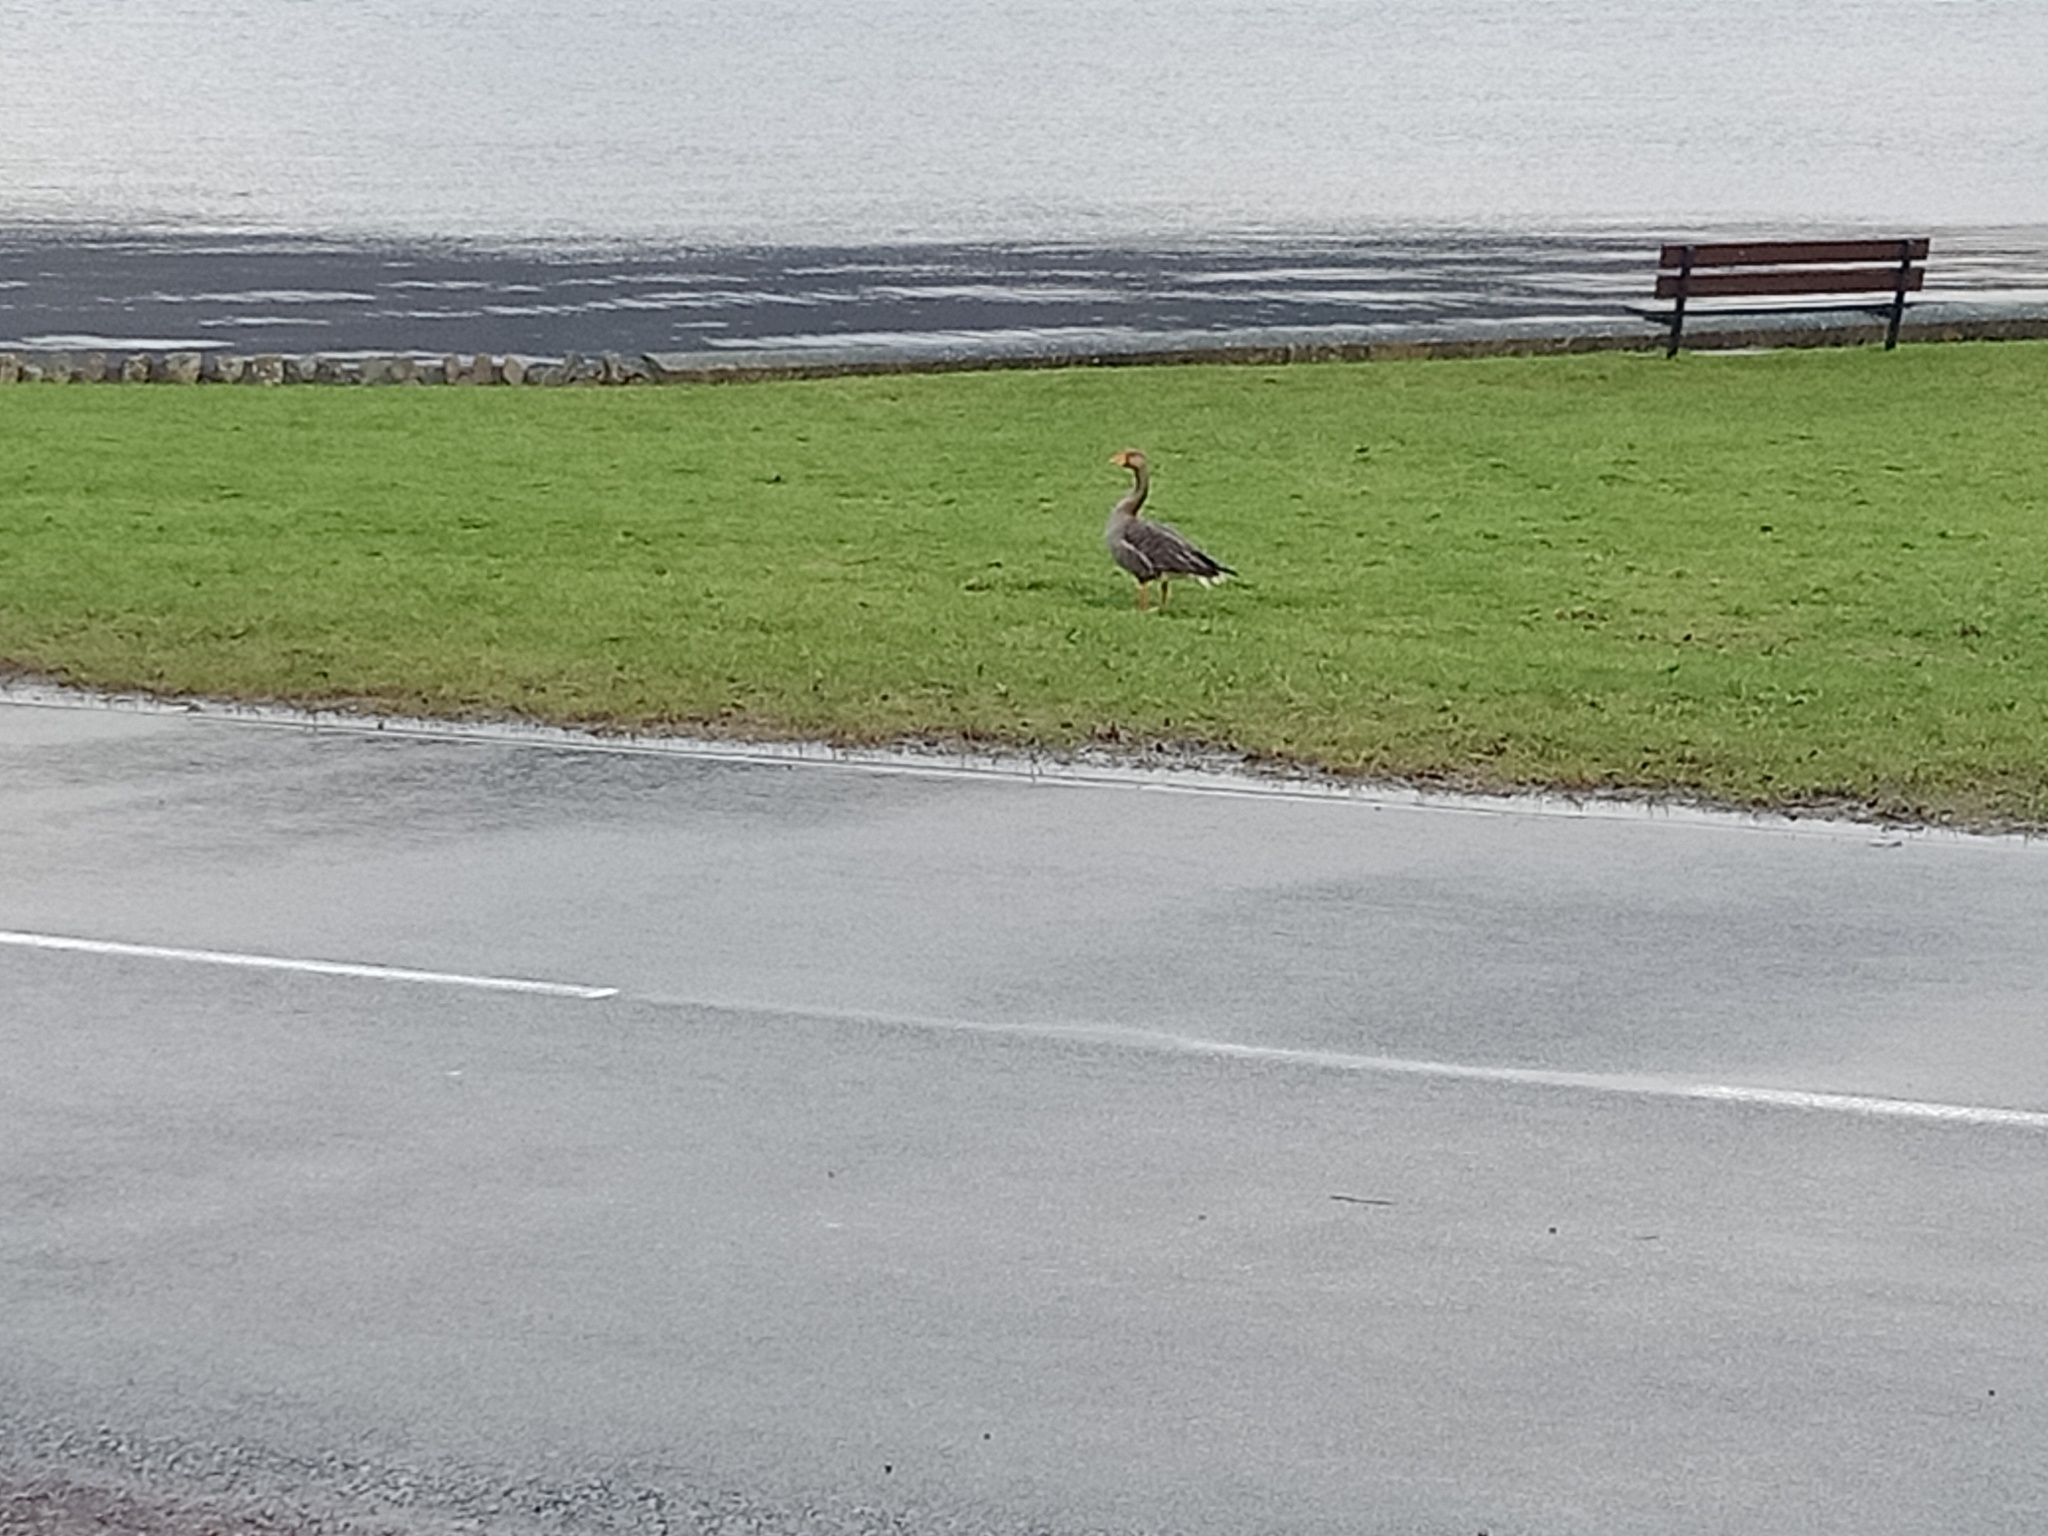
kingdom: Animalia
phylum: Chordata
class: Aves
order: Anseriformes
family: Anatidae
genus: Anser
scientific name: Anser anser
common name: Greylag goose
